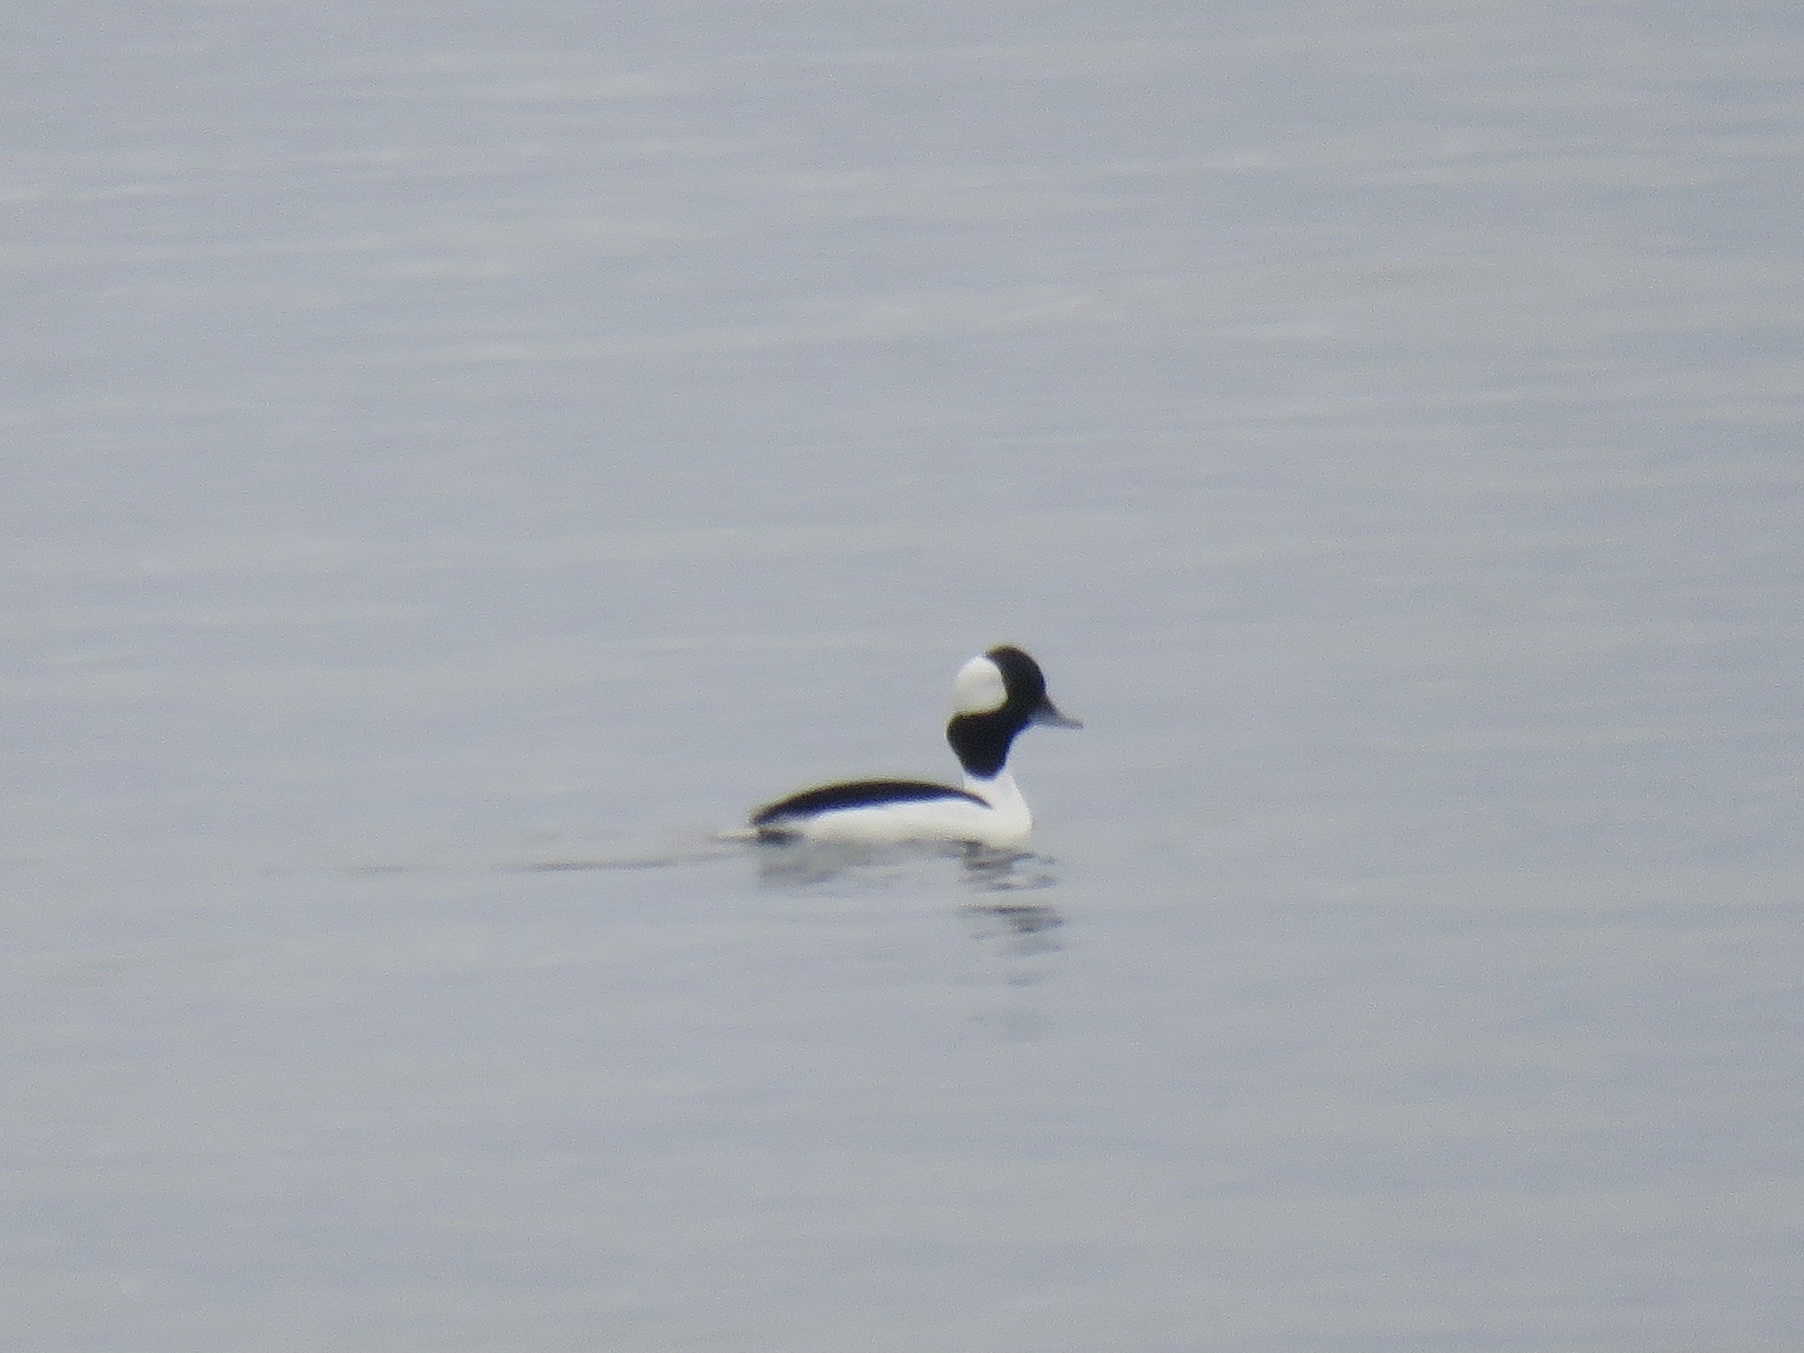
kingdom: Animalia
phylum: Chordata
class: Aves
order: Anseriformes
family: Anatidae
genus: Bucephala
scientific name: Bucephala albeola
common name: Bufflehead
